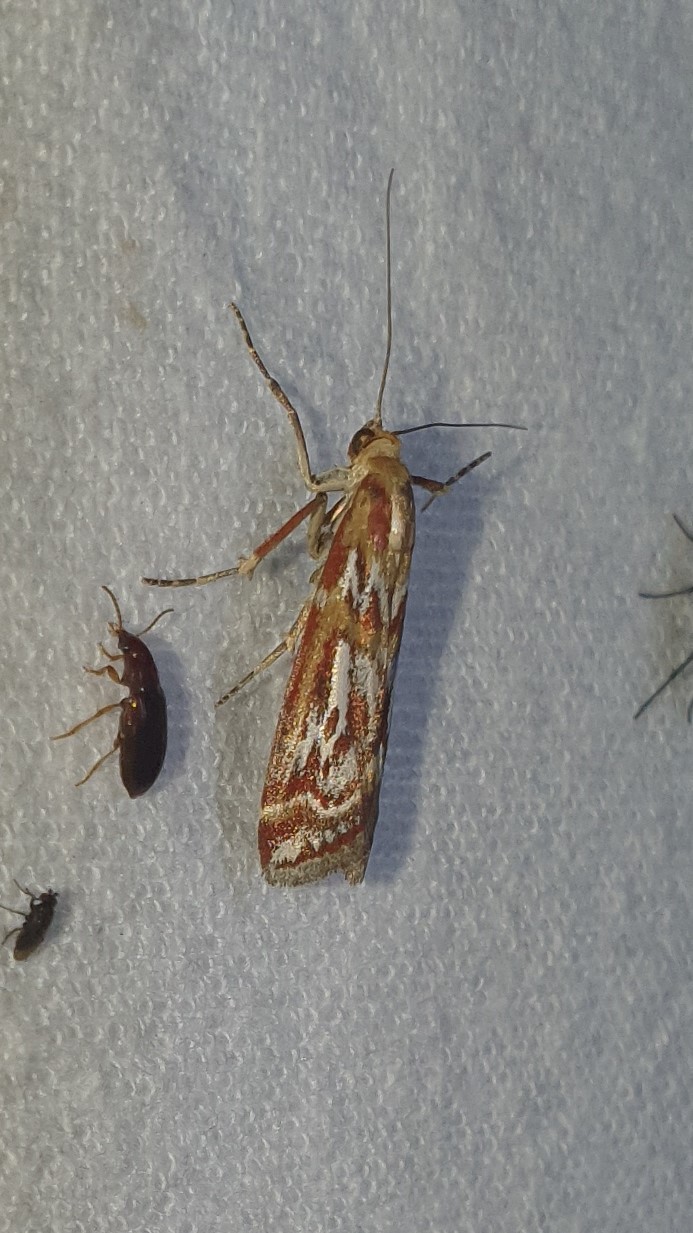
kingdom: Animalia
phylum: Arthropoda
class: Insecta
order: Lepidoptera
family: Pyralidae
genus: Acrobasis
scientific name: Acrobasis porphyrella
